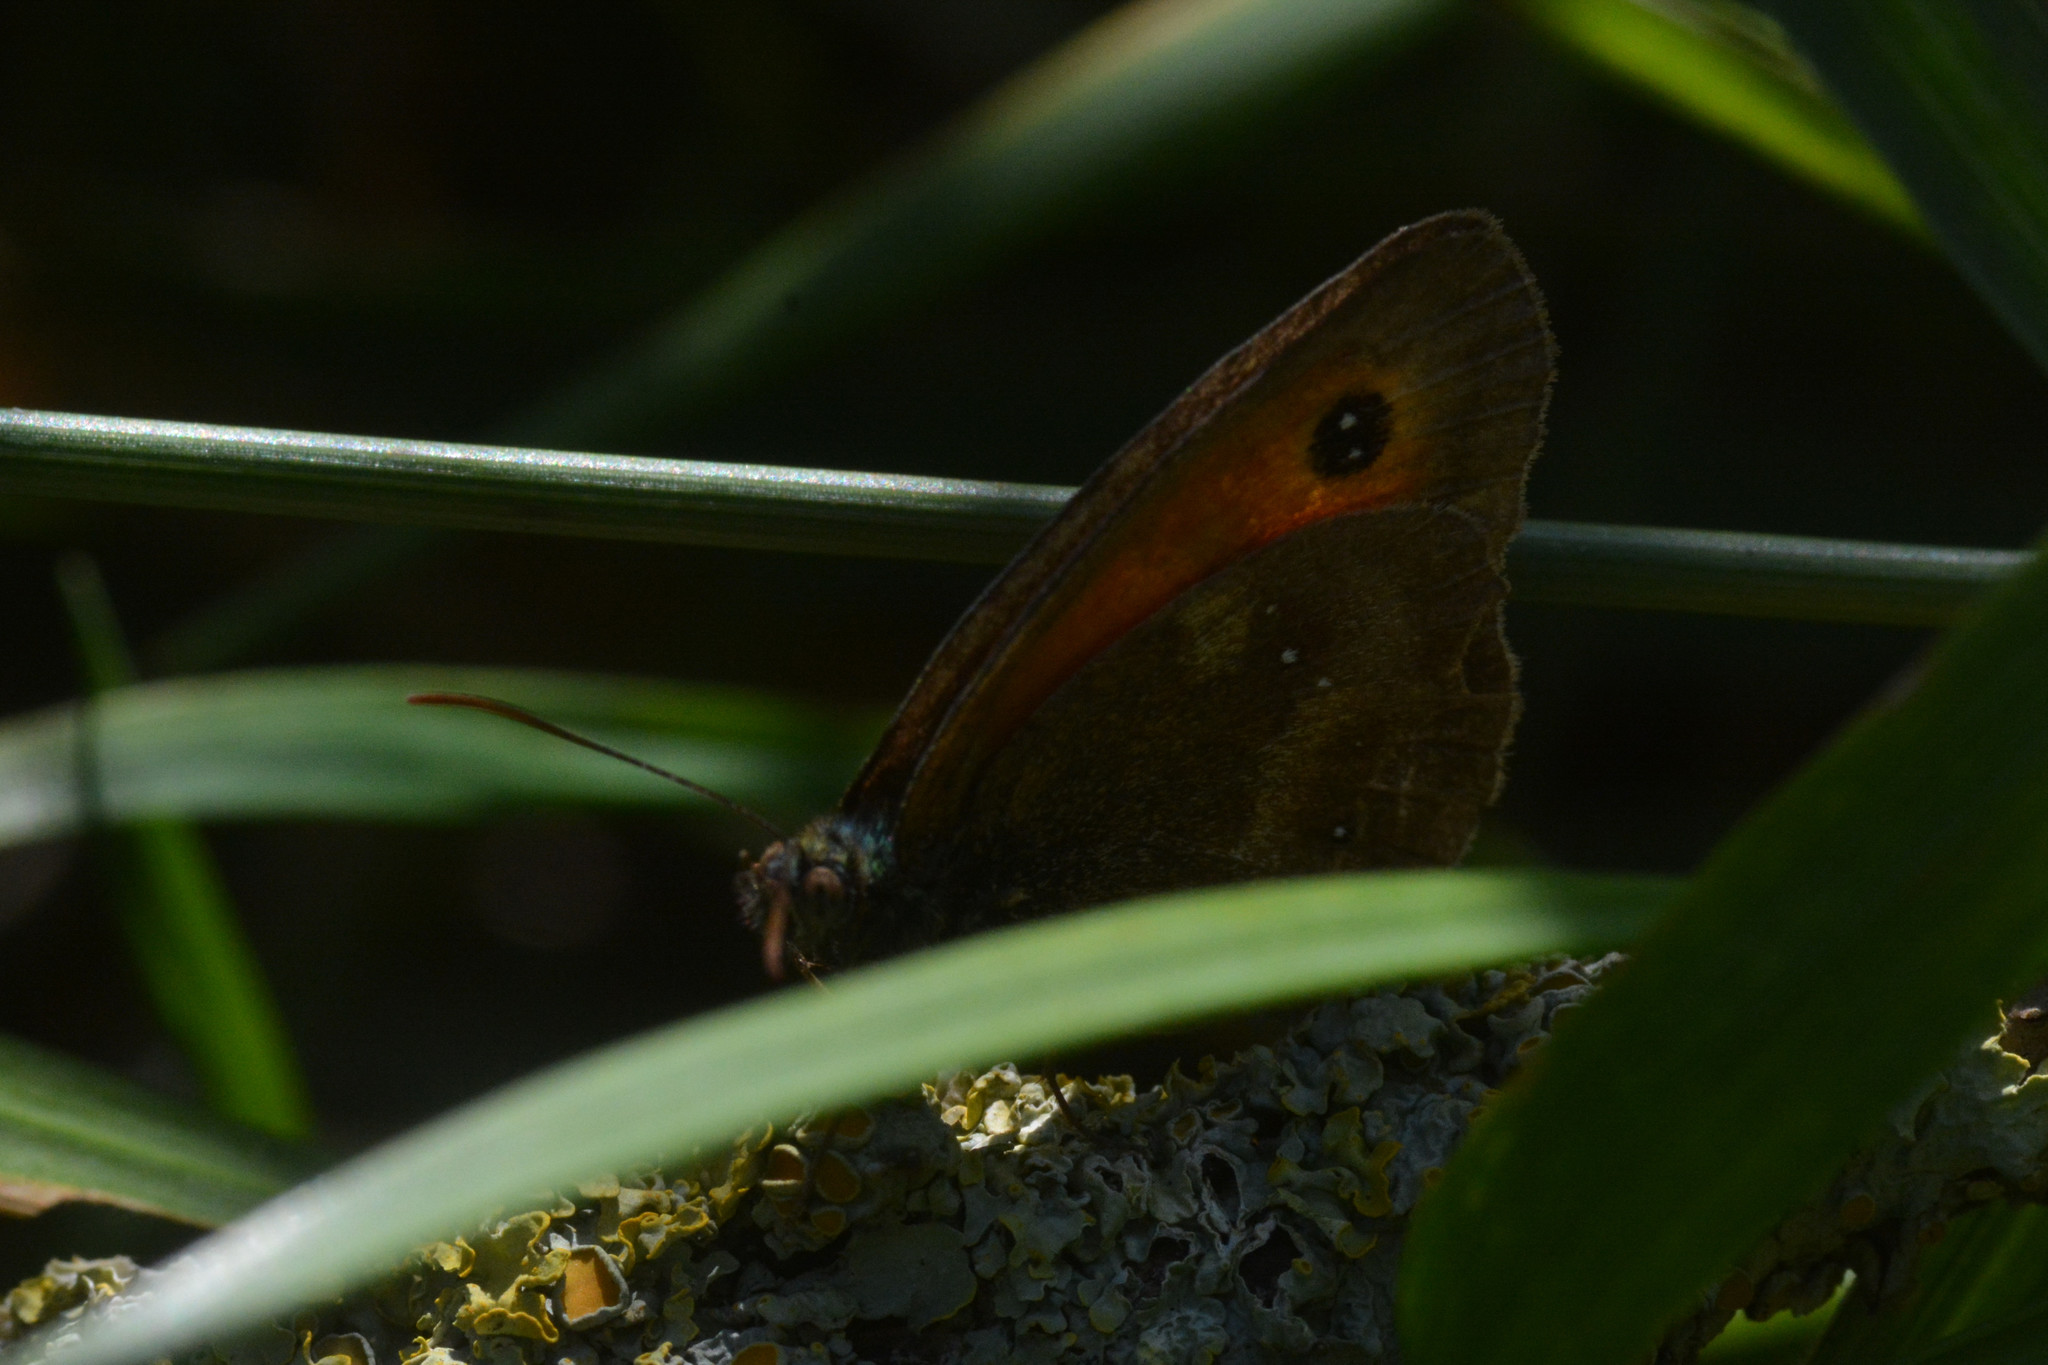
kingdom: Animalia
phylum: Arthropoda
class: Insecta
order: Lepidoptera
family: Nymphalidae
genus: Pyronia
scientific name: Pyronia tithonus
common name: Gatekeeper
